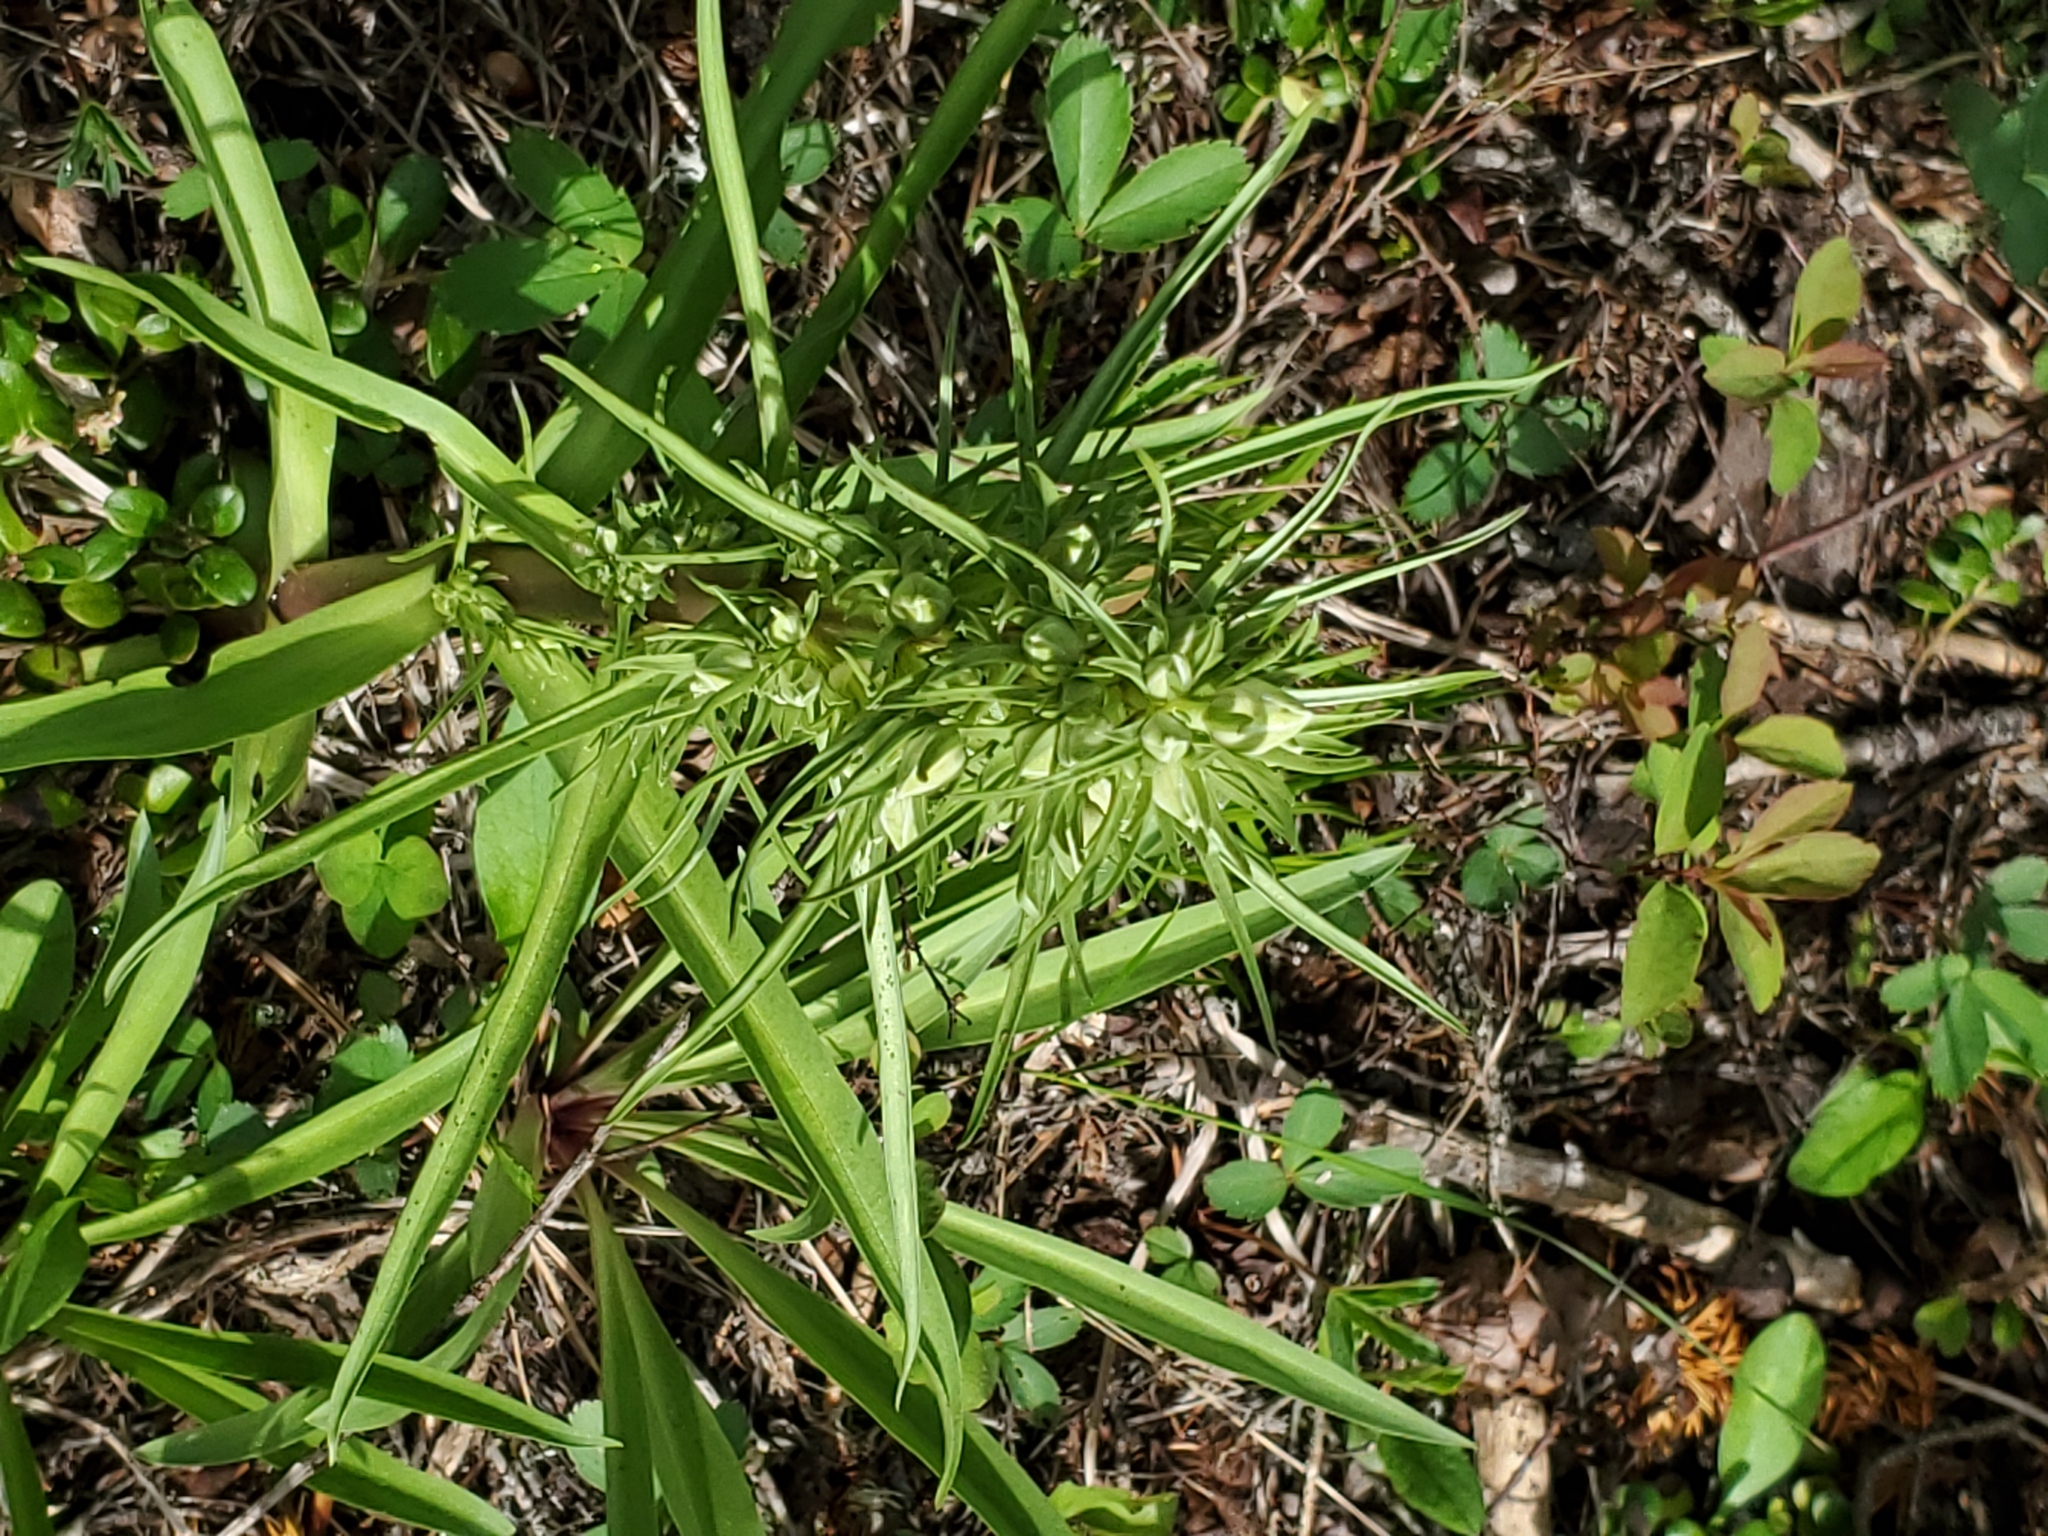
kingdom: Plantae
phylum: Tracheophyta
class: Magnoliopsida
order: Gentianales
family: Gentianaceae
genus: Frasera
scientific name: Frasera speciosa
